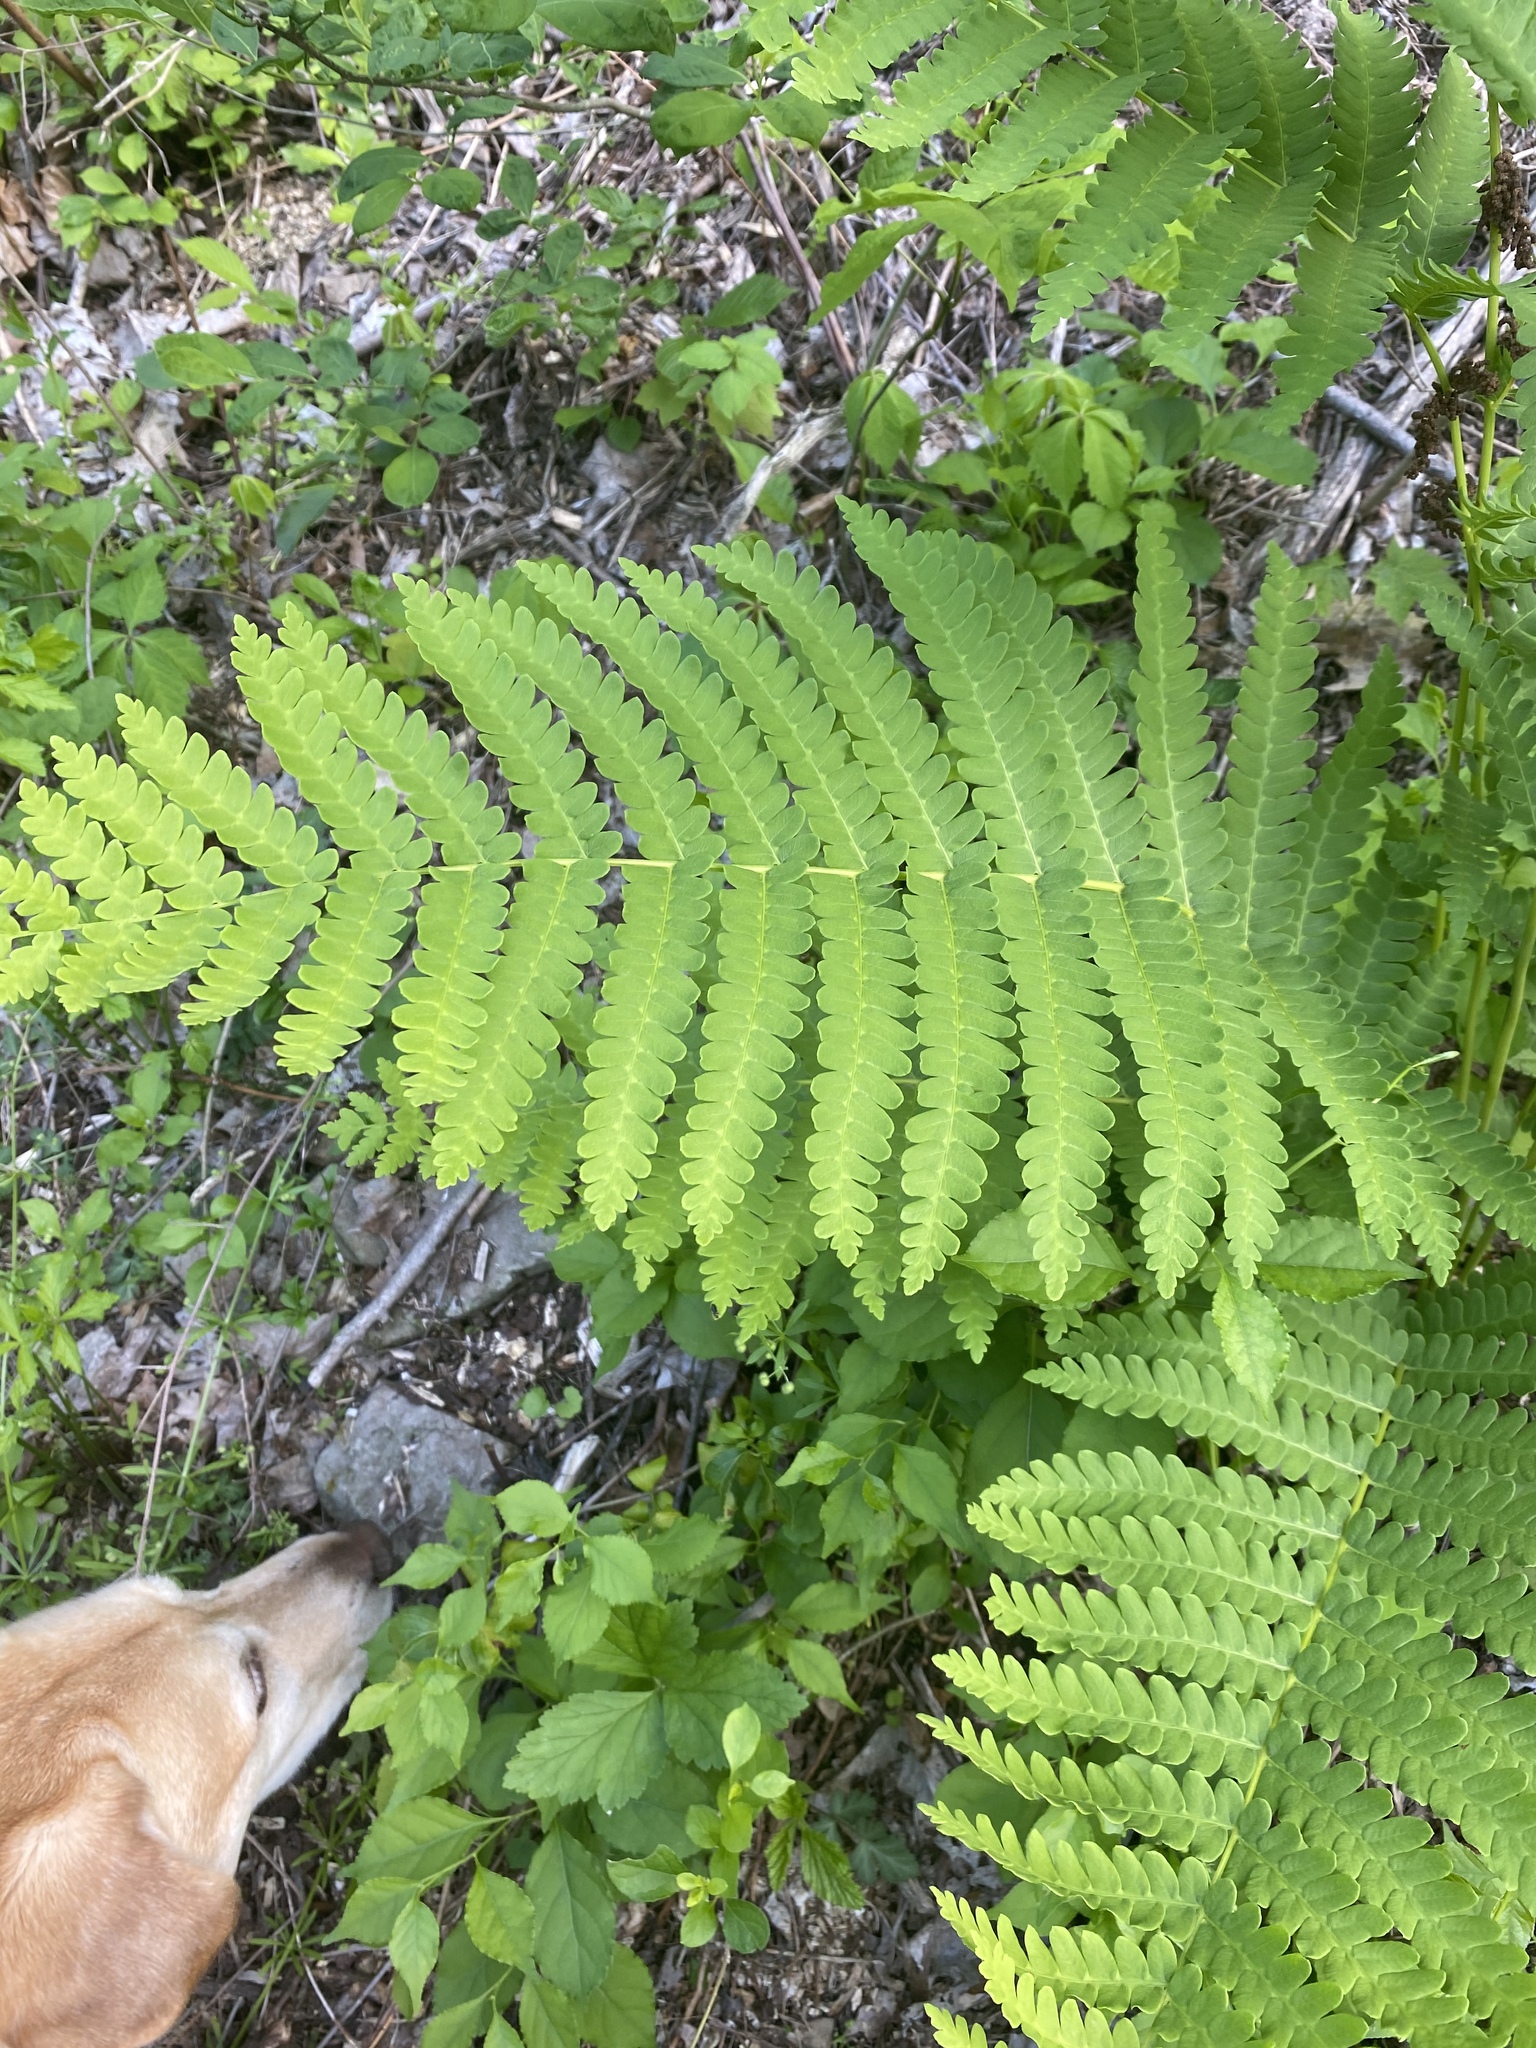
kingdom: Plantae
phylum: Tracheophyta
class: Polypodiopsida
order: Osmundales
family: Osmundaceae
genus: Claytosmunda
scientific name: Claytosmunda claytoniana
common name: Clayton's fern
